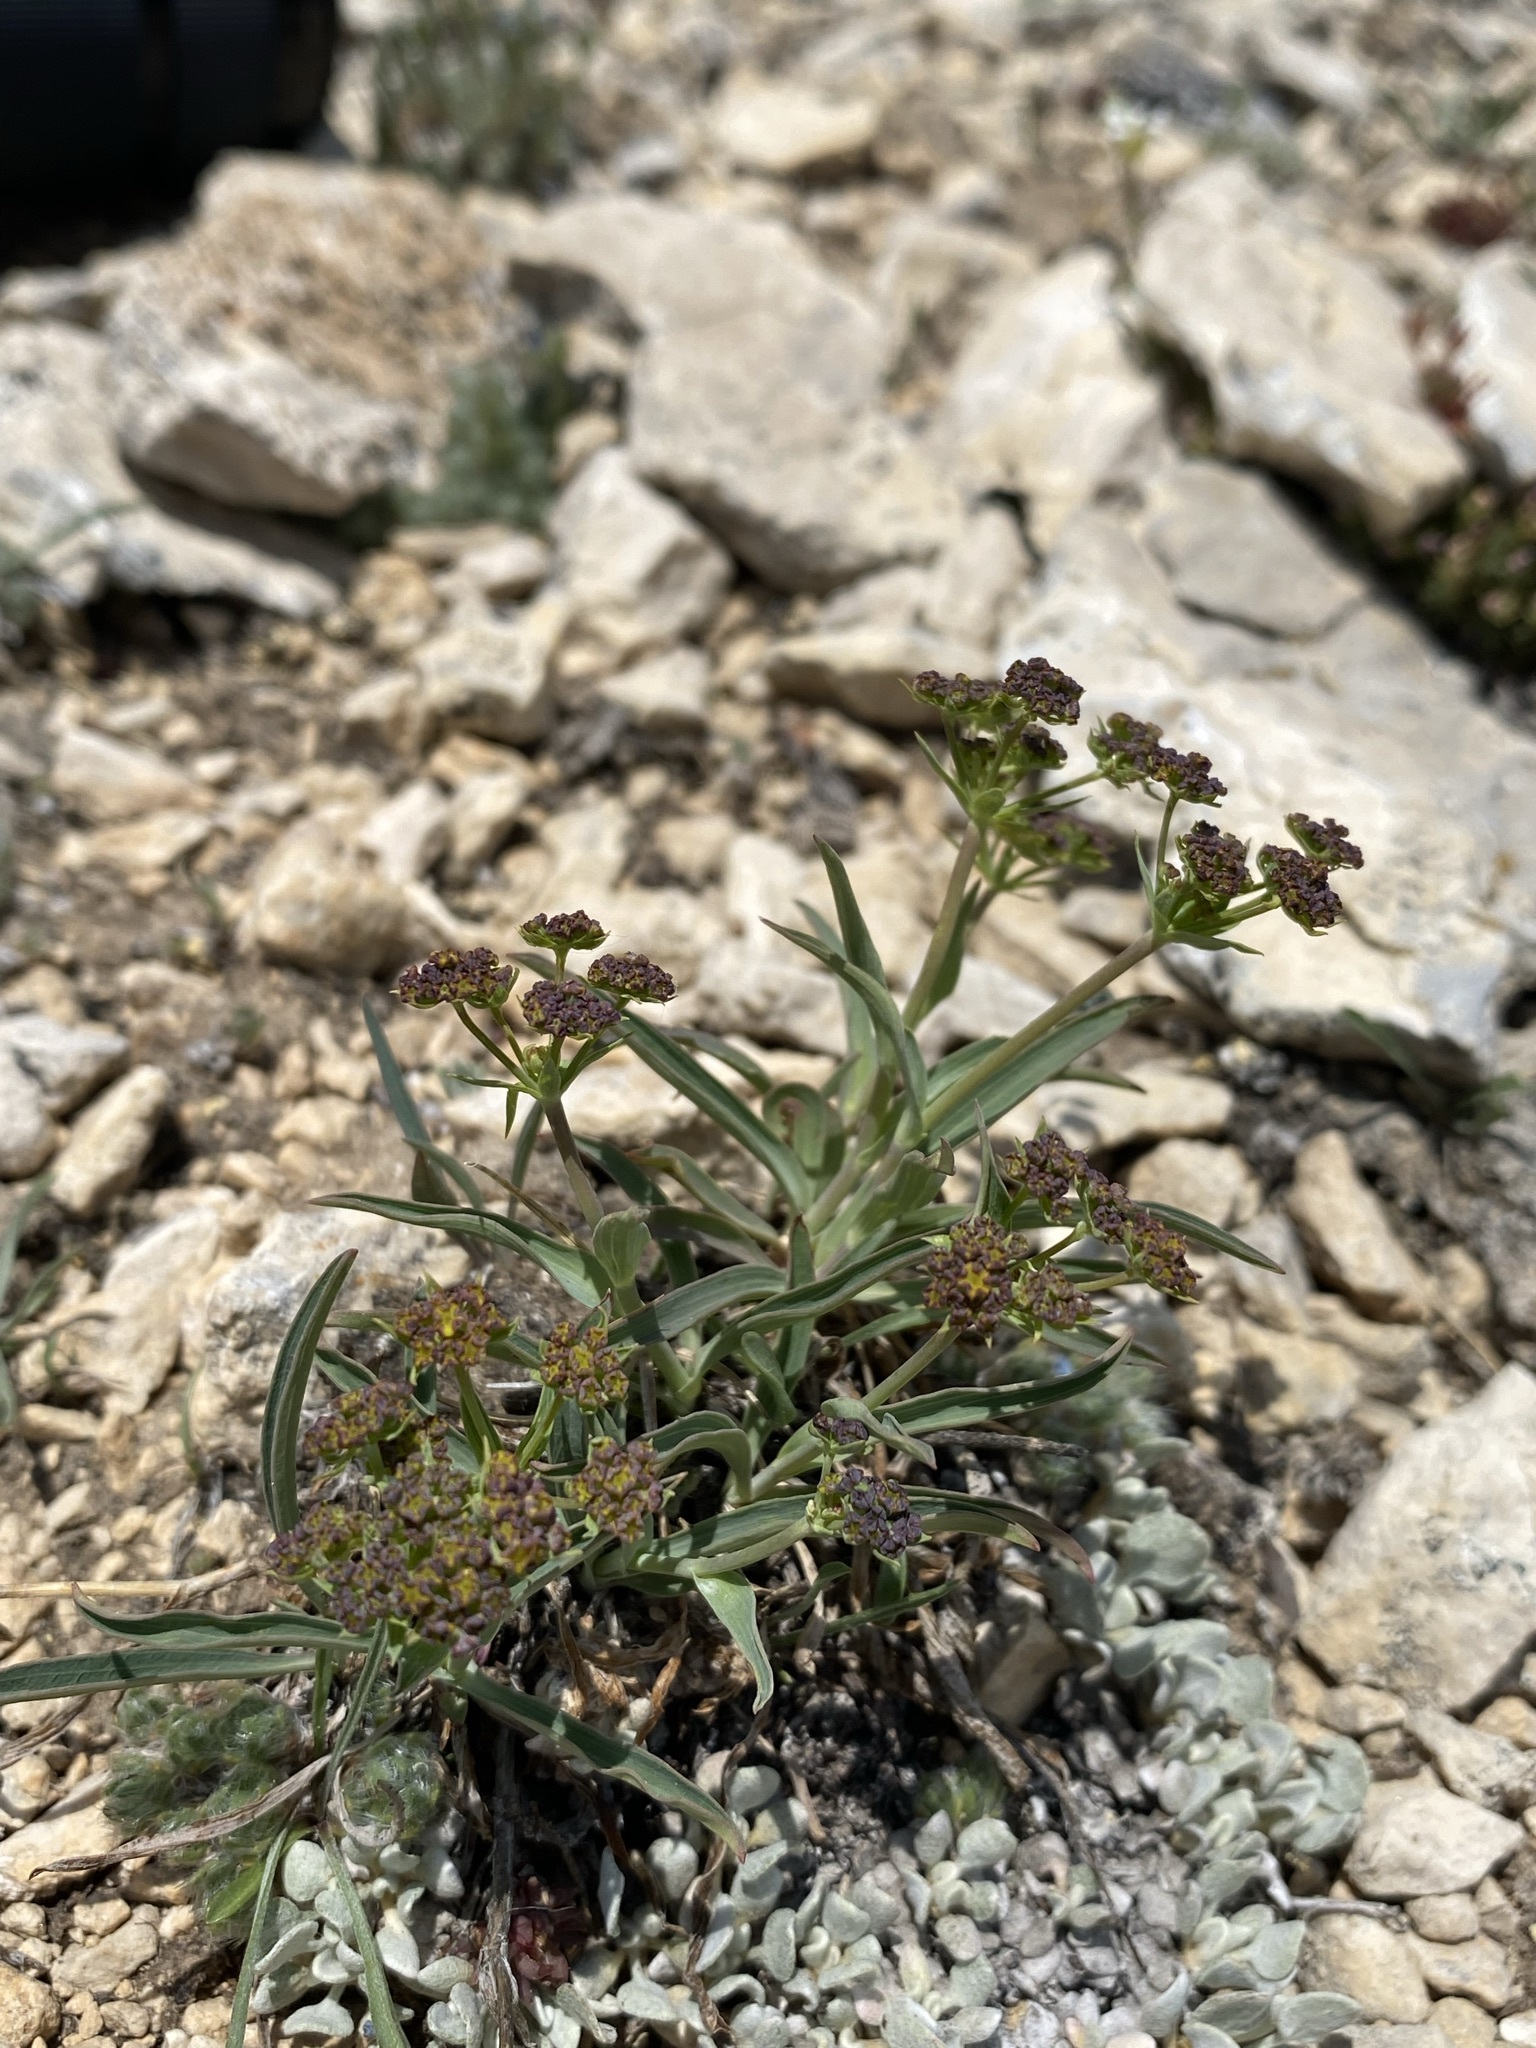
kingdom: Plantae
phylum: Tracheophyta
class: Magnoliopsida
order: Apiales
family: Apiaceae
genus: Bupleurum
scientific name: Bupleurum americanum
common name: American thoroughwax
